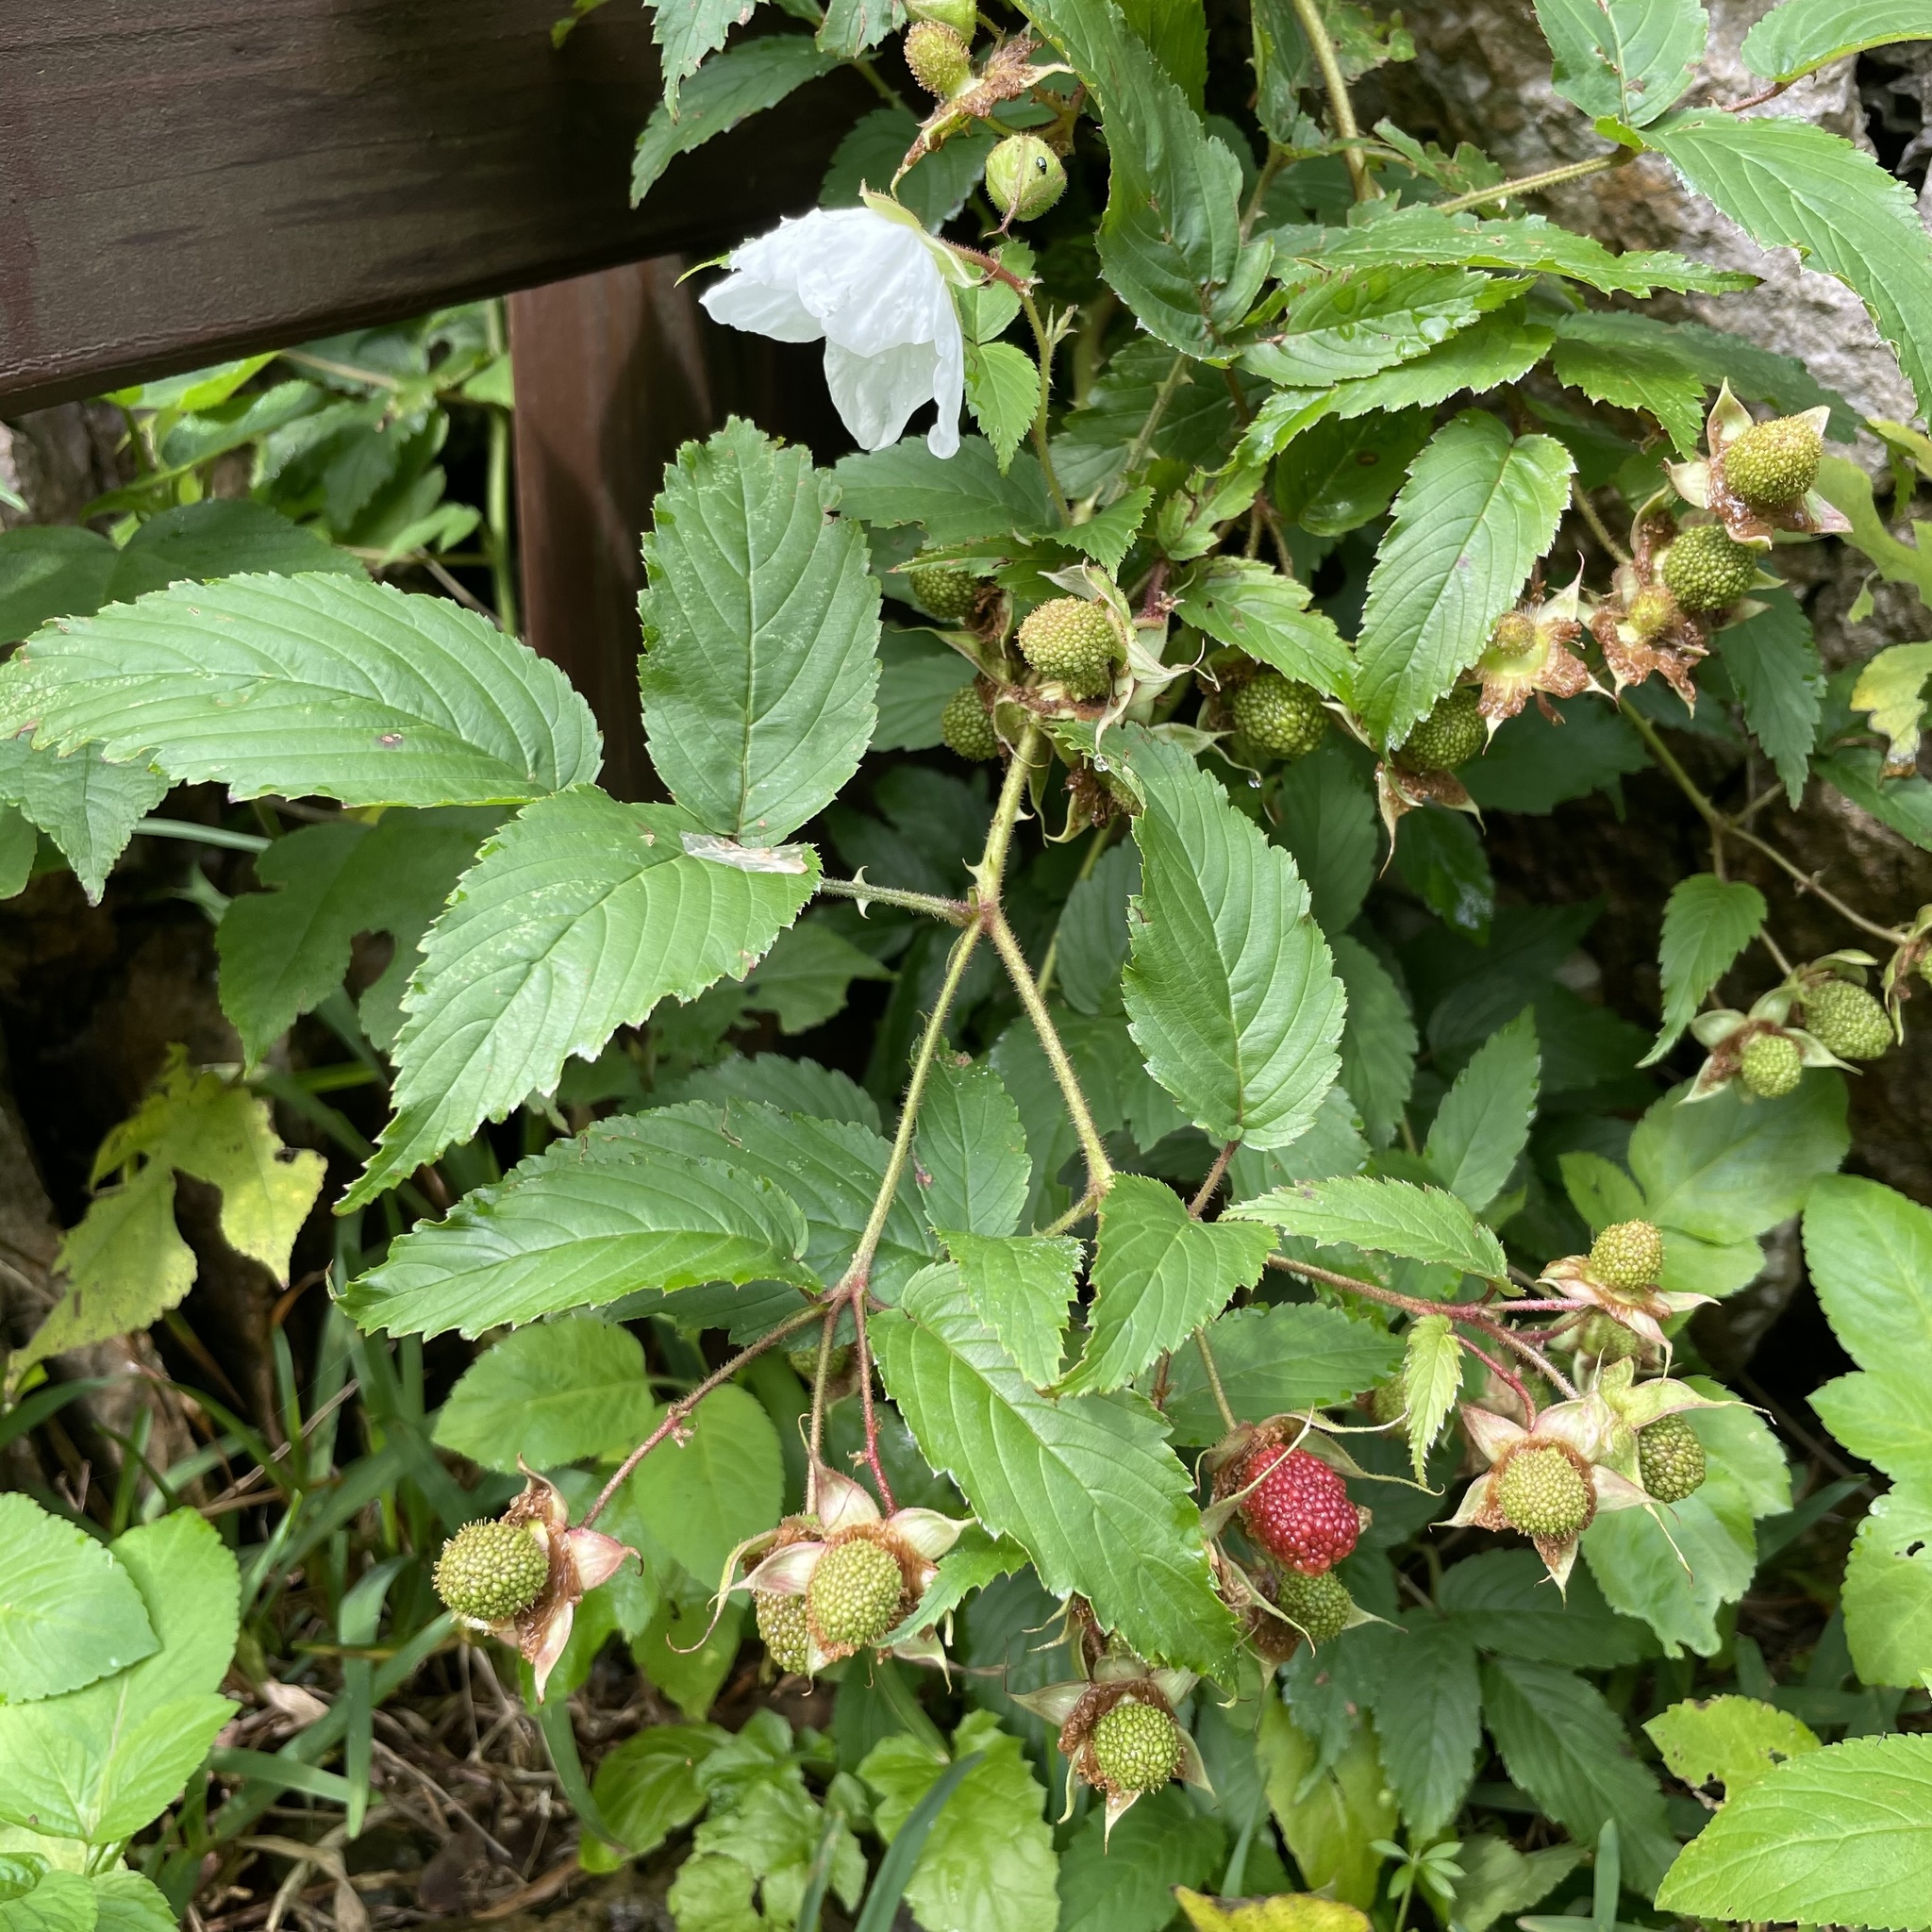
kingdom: Plantae
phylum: Tracheophyta
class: Magnoliopsida
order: Rosales
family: Rosaceae
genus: Rubus
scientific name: Rubus okinawensis
